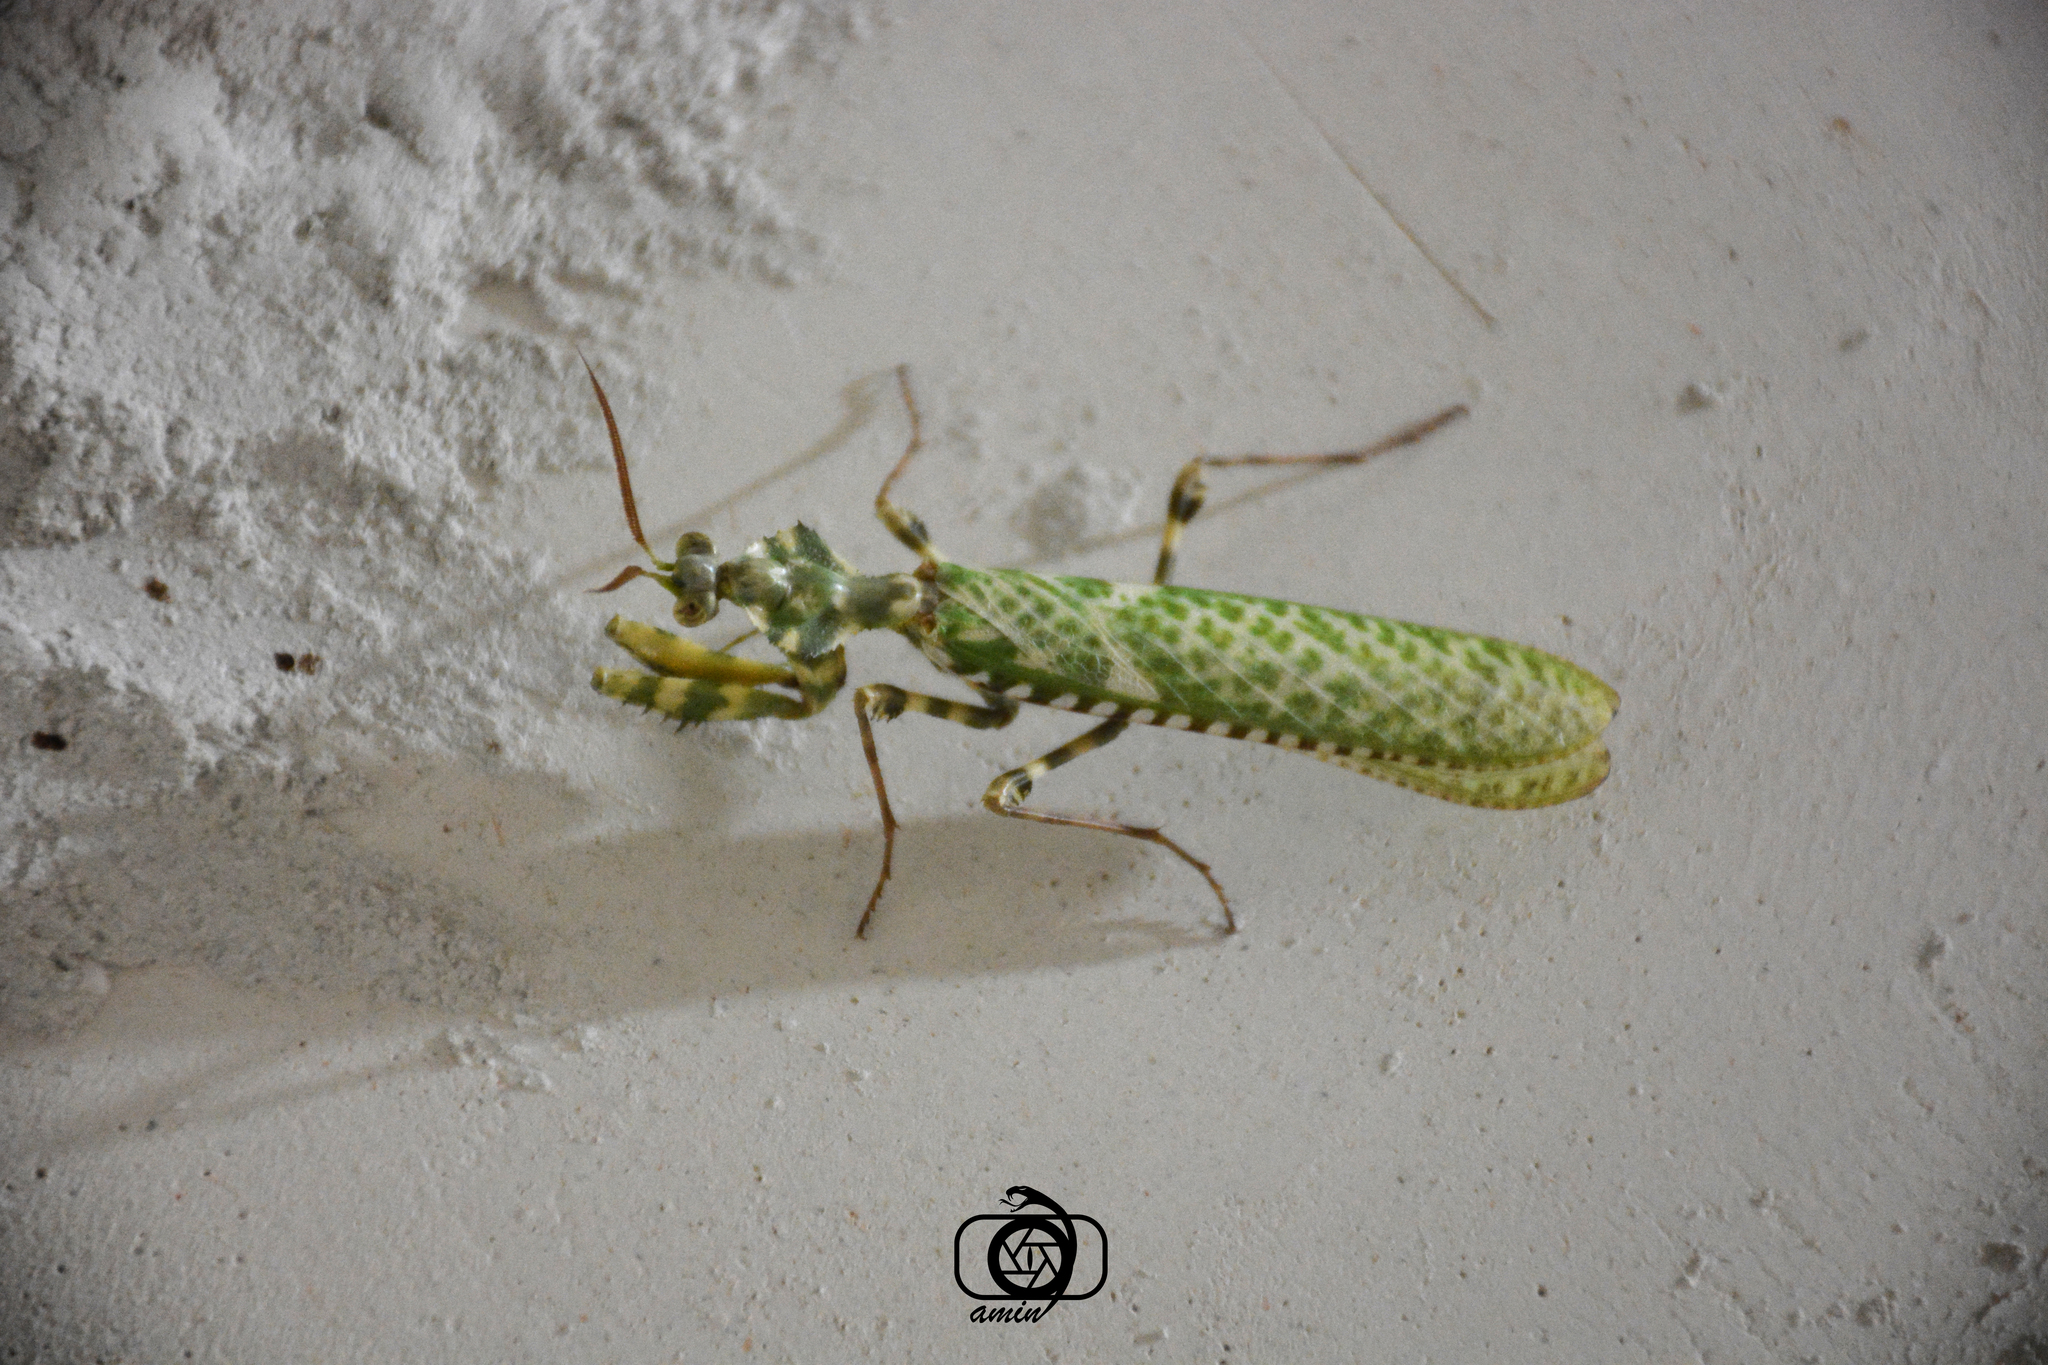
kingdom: Animalia
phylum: Arthropoda
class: Insecta
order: Mantodea
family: Empusidae
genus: Blepharopsis
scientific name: Blepharopsis mendica
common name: Devil's flower mantis
